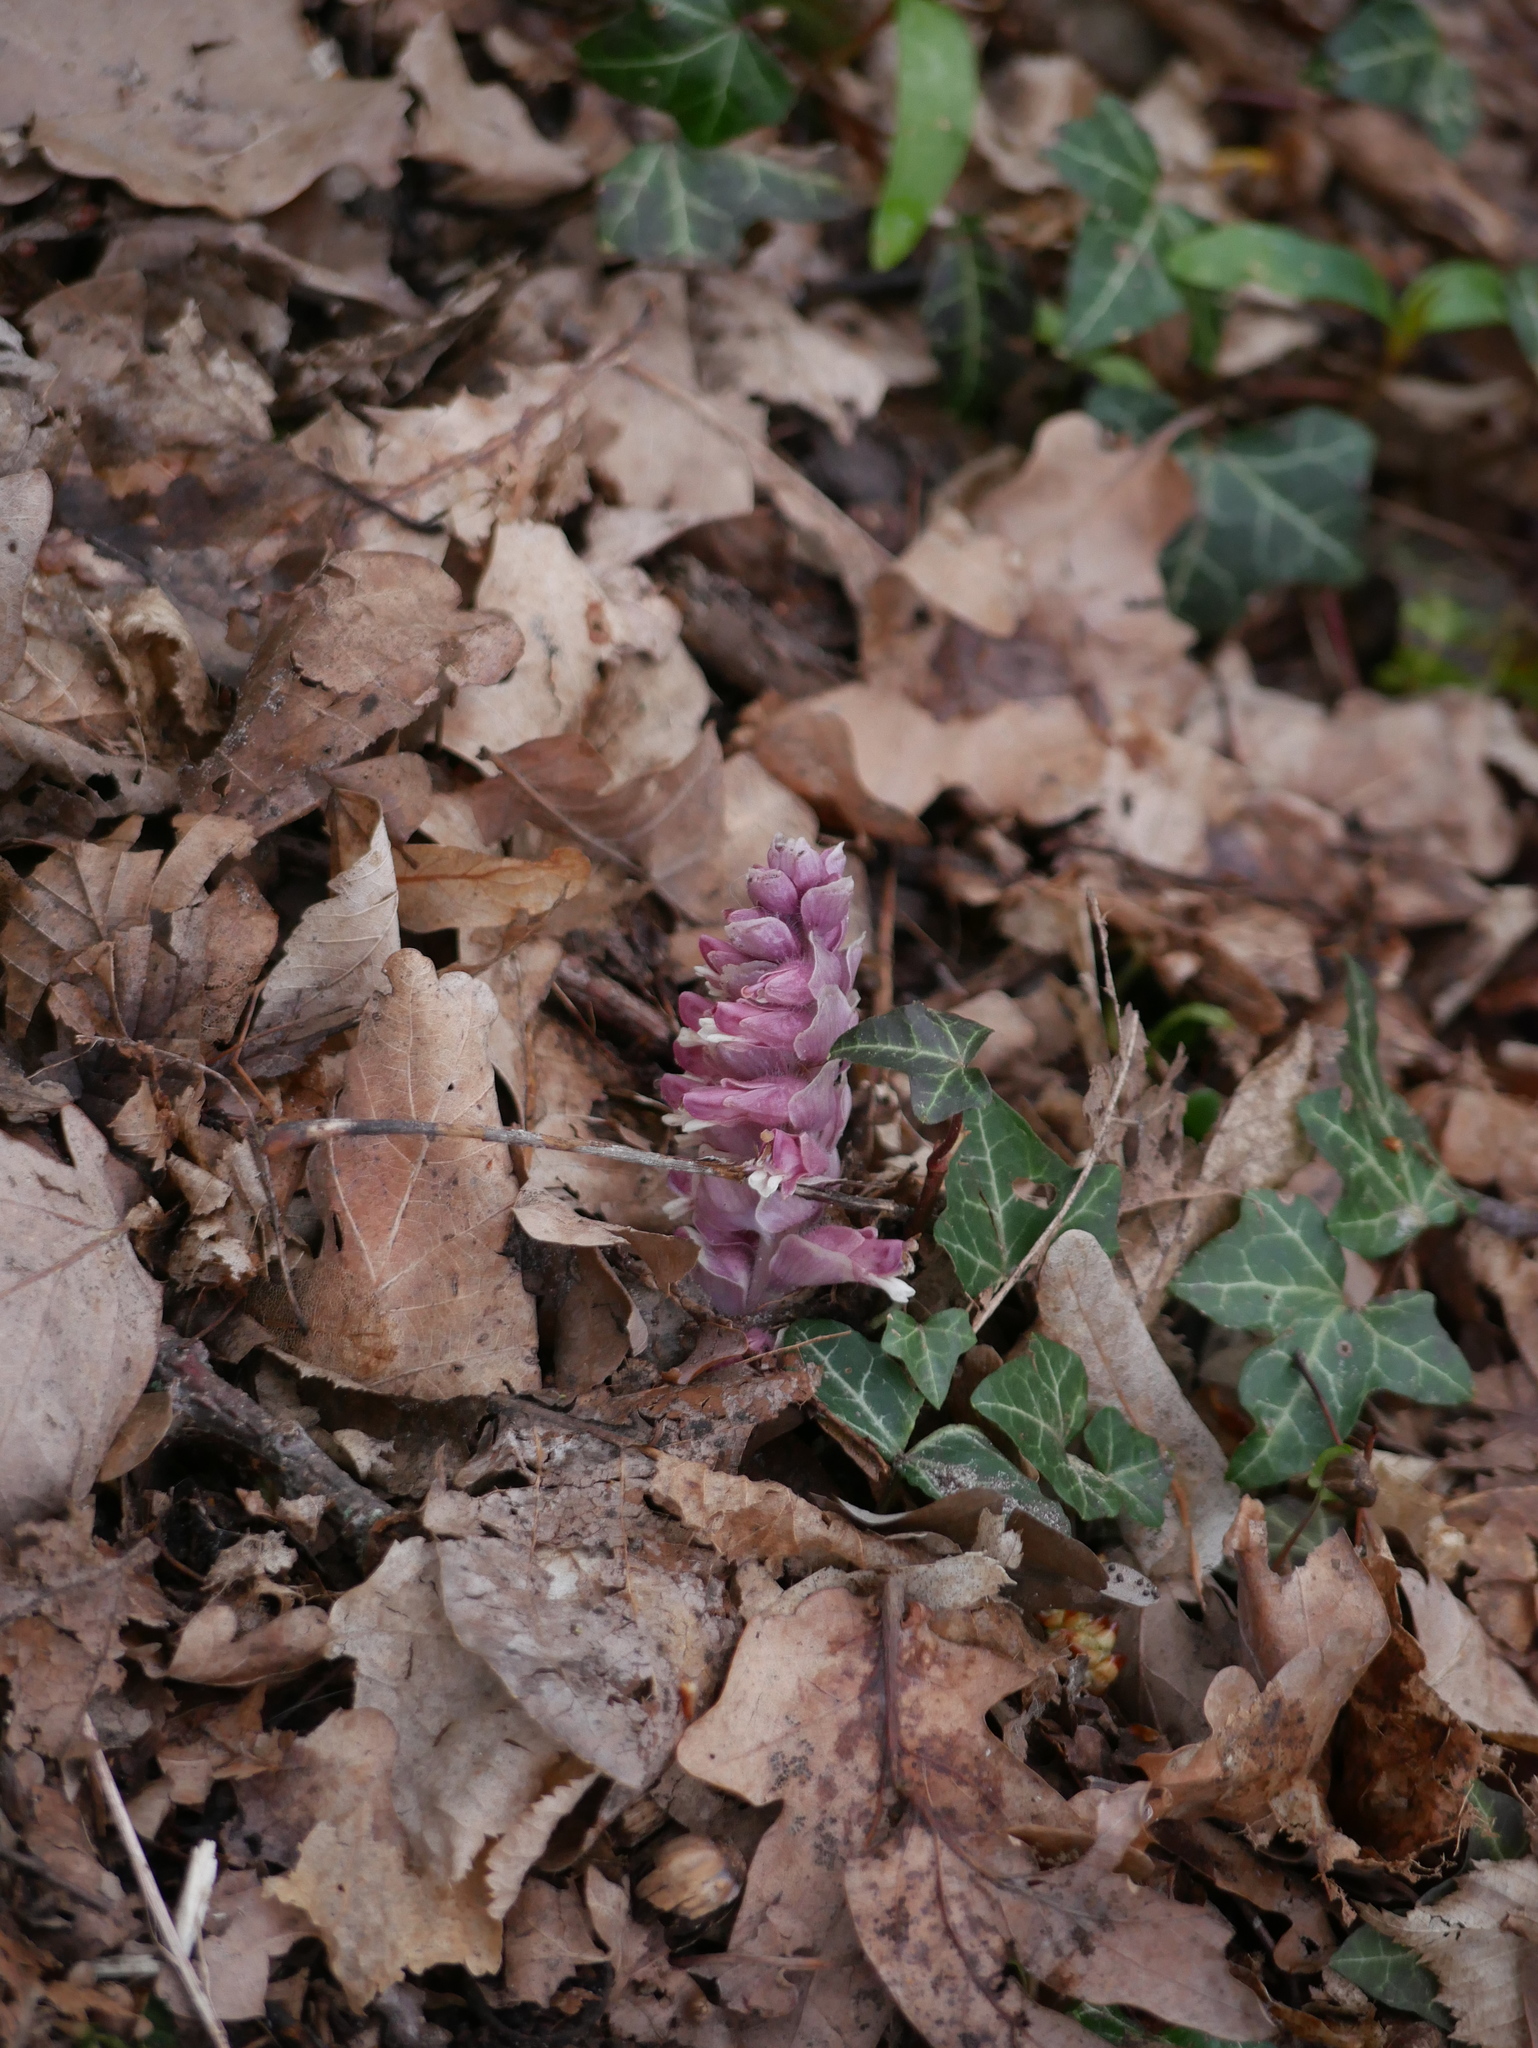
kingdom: Plantae
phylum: Tracheophyta
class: Magnoliopsida
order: Lamiales
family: Orobanchaceae
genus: Lathraea
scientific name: Lathraea squamaria
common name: Toothwort
